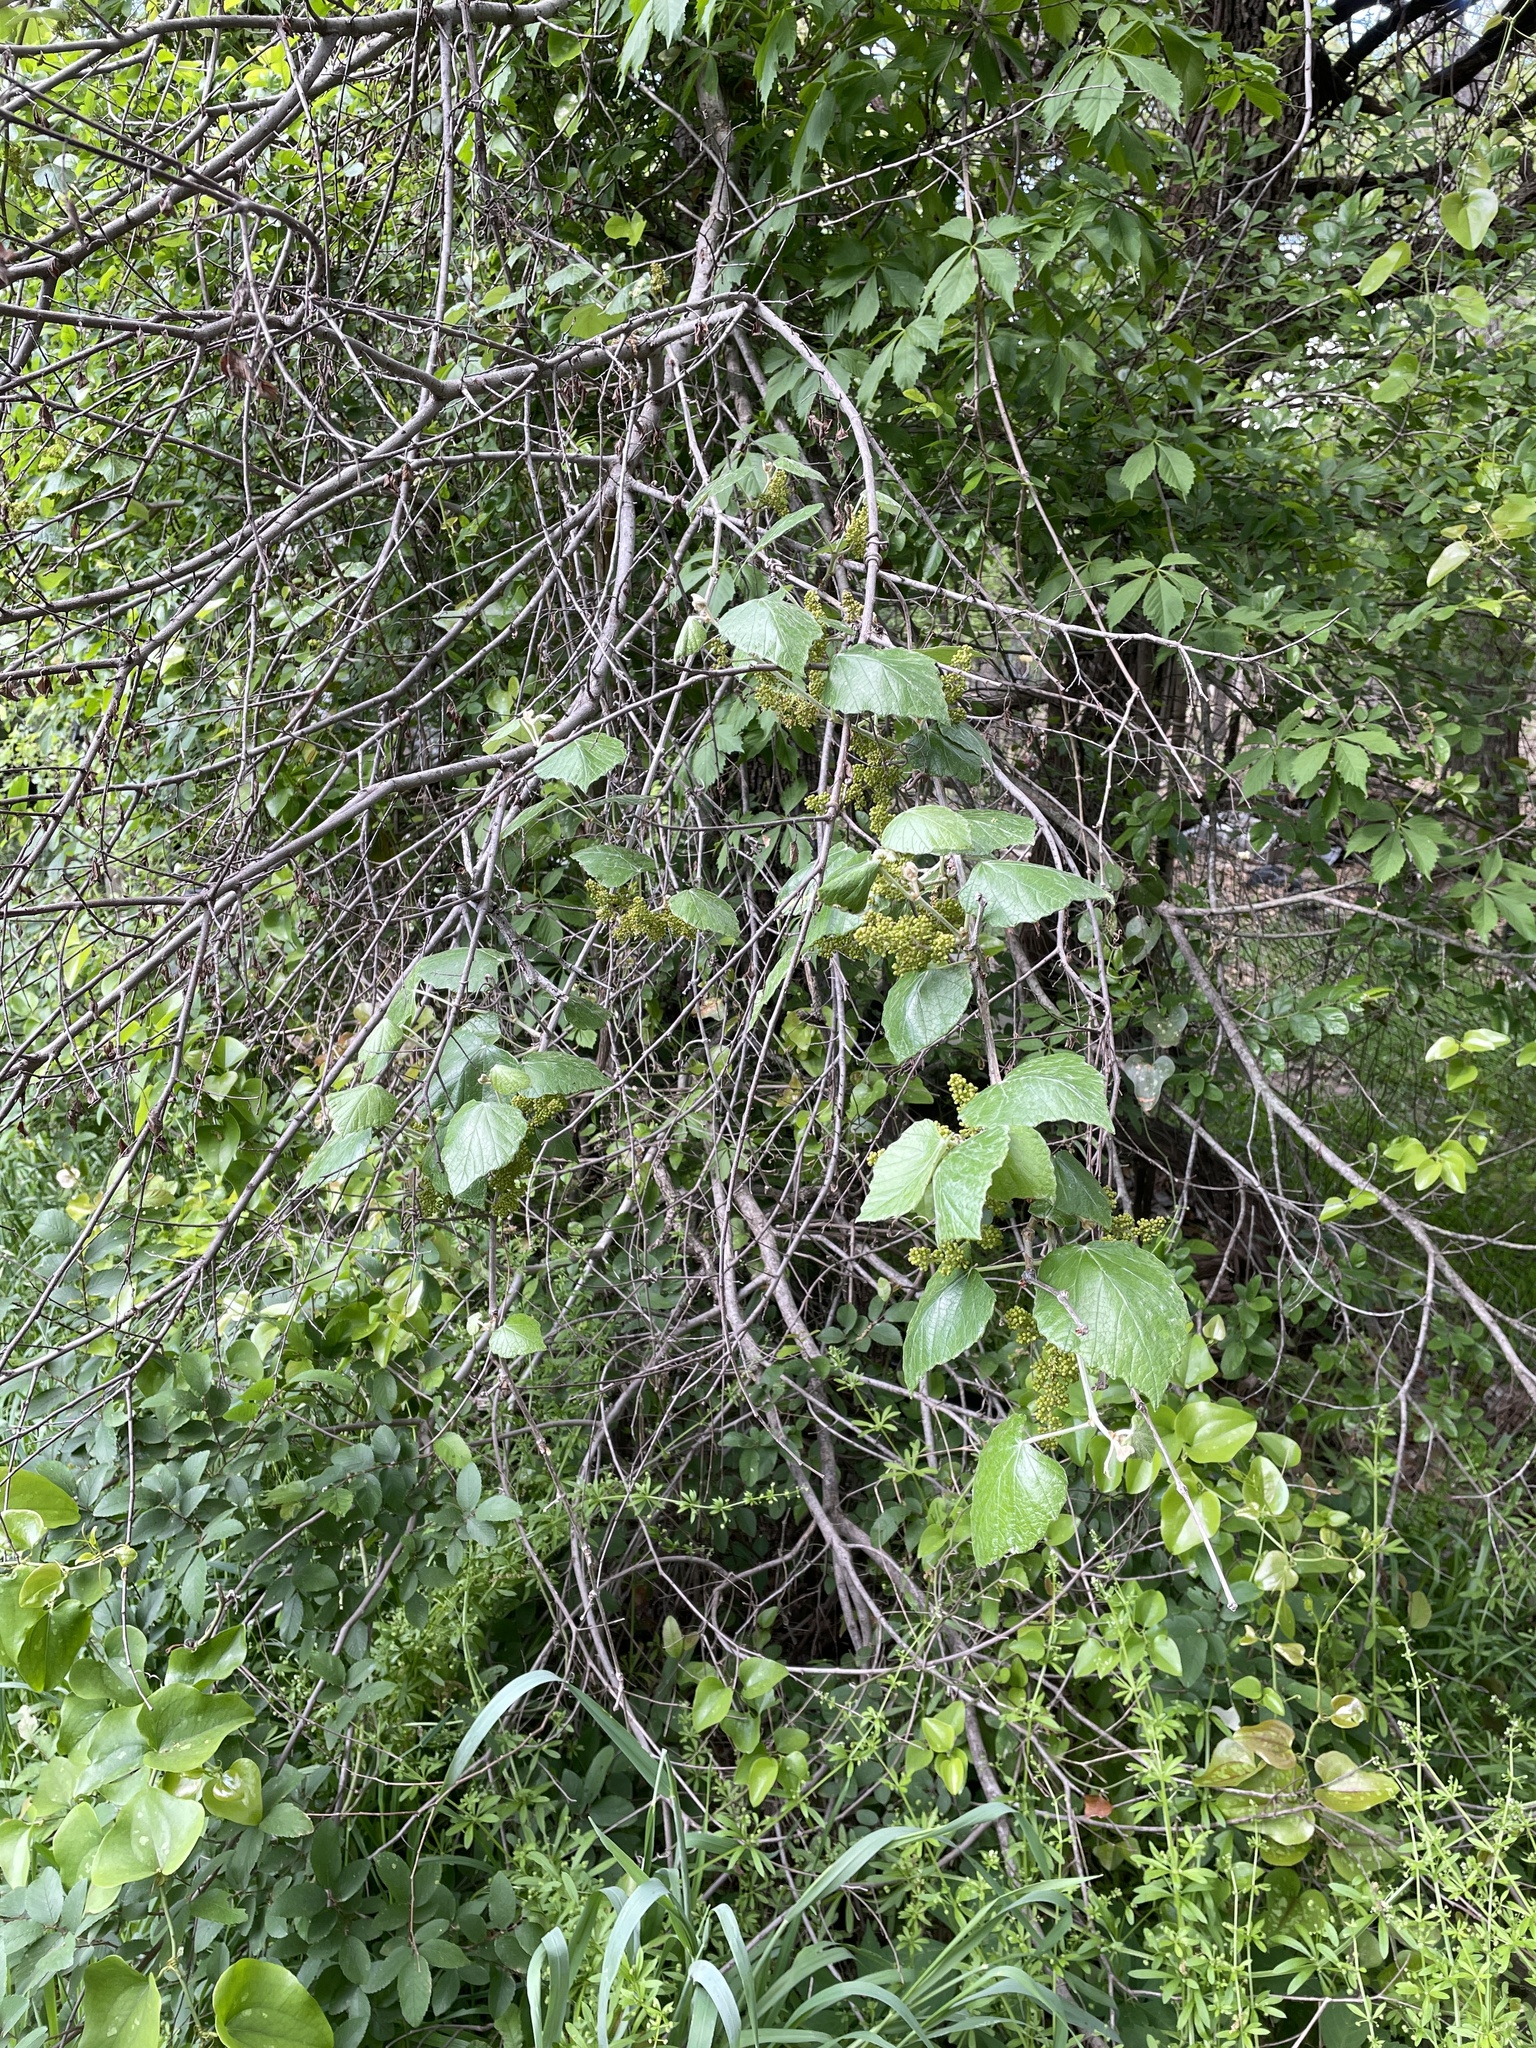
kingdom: Plantae
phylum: Tracheophyta
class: Magnoliopsida
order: Vitales
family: Vitaceae
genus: Vitis
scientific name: Vitis mustangensis
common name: Mustang grape
